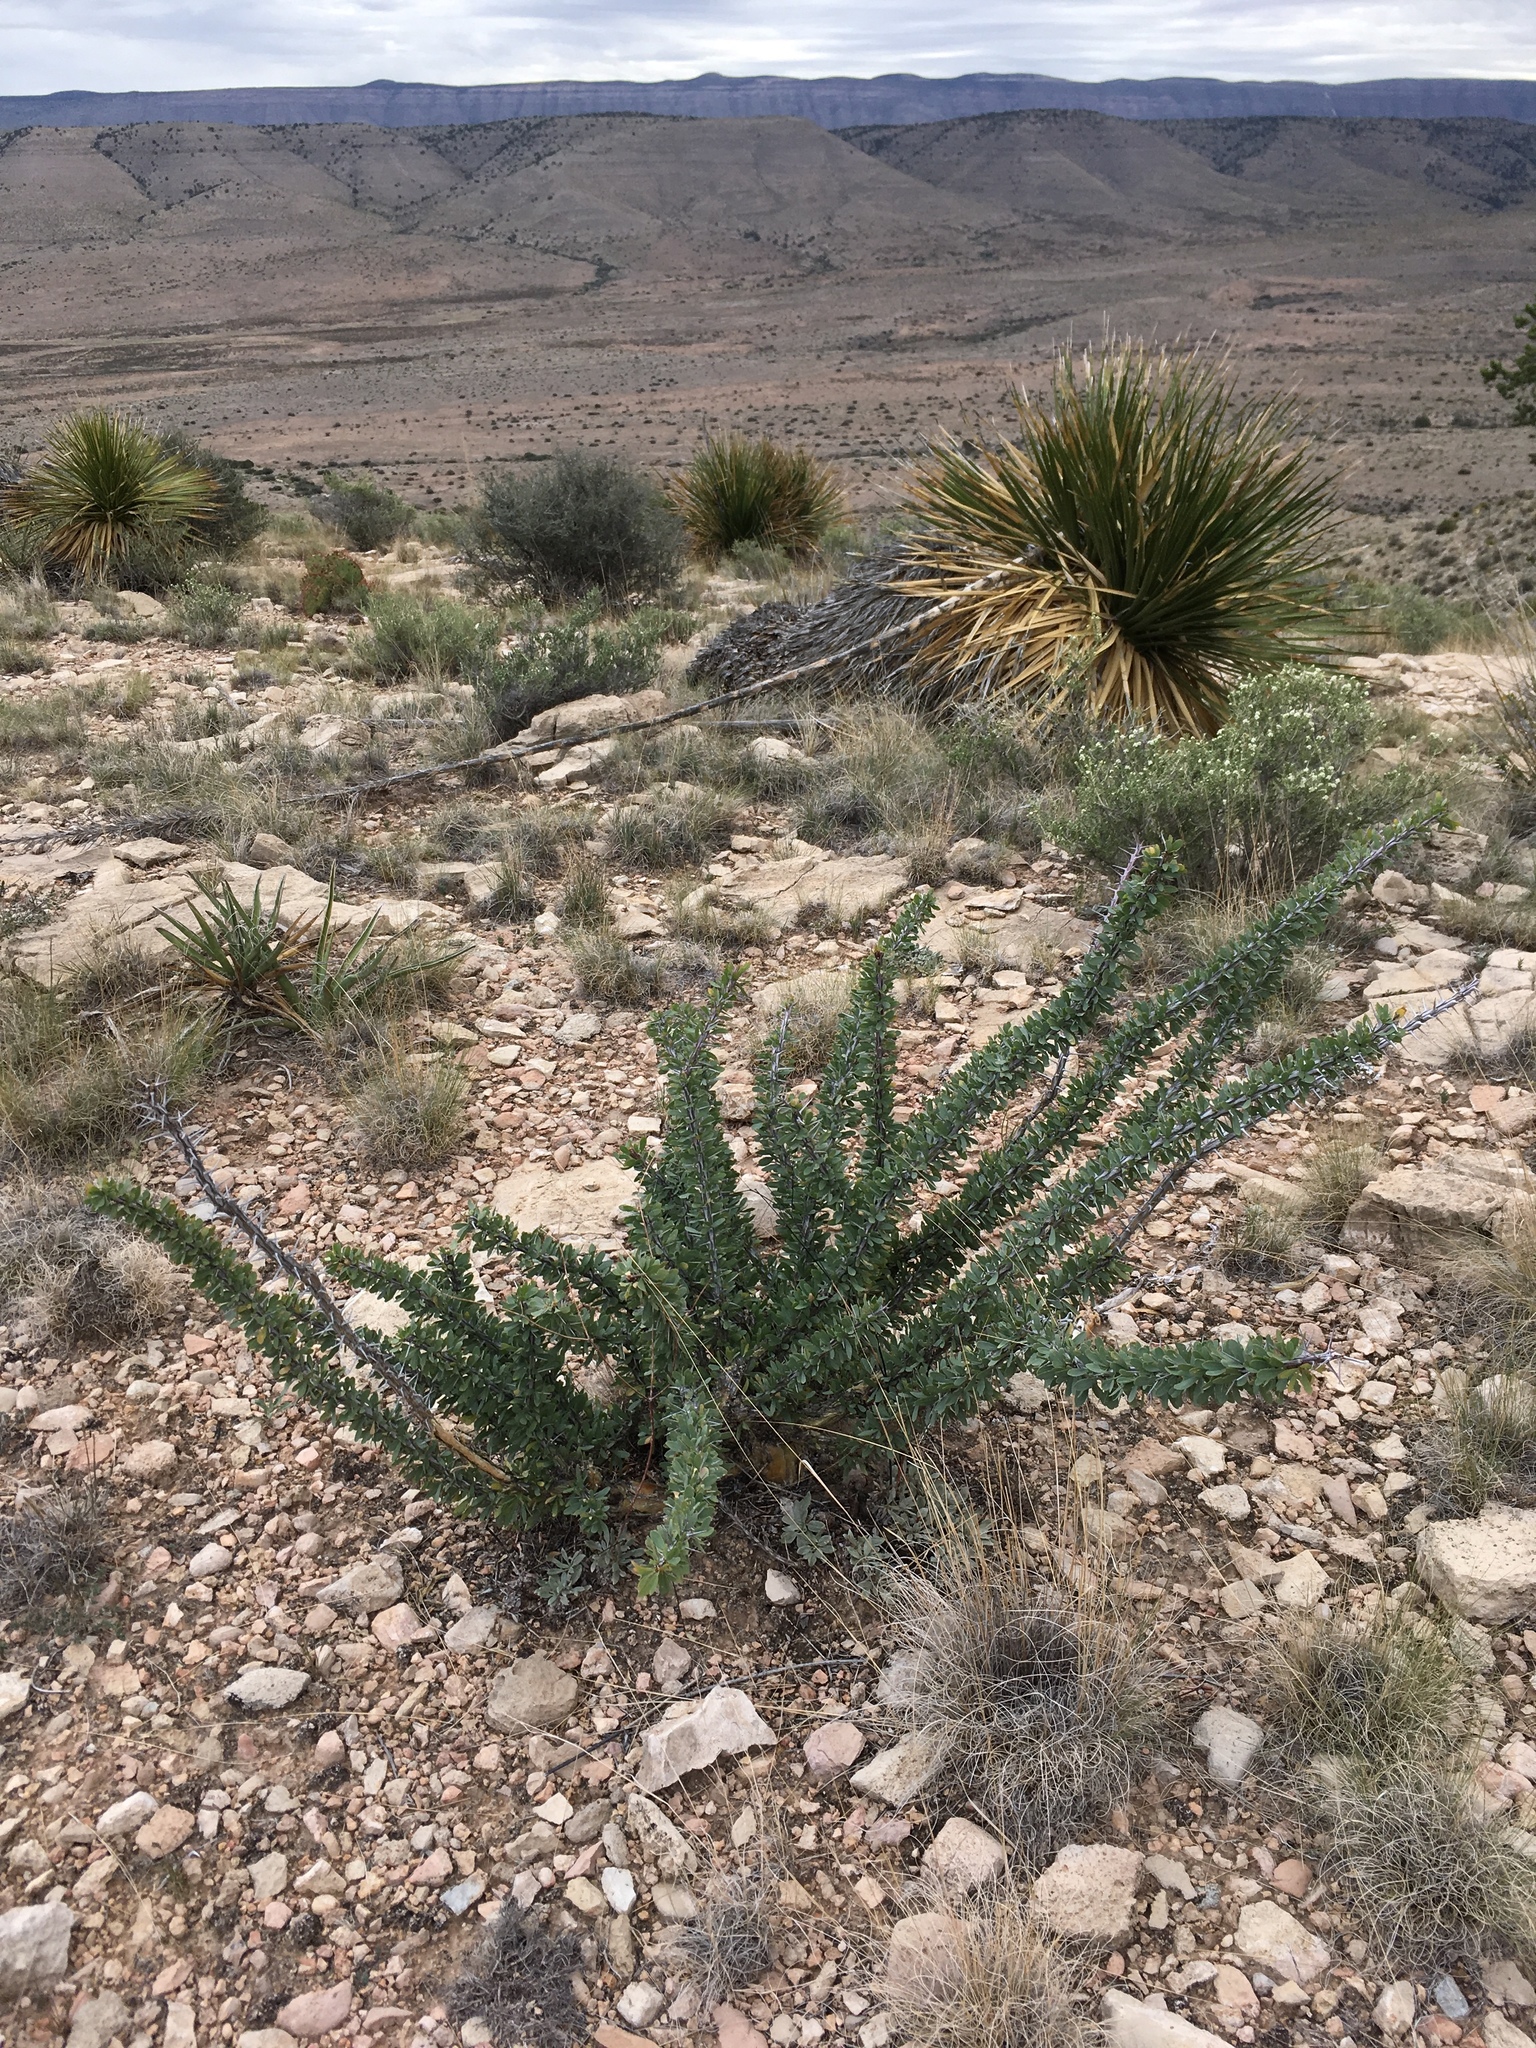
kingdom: Plantae
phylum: Tracheophyta
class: Magnoliopsida
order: Ericales
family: Fouquieriaceae
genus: Fouquieria
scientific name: Fouquieria splendens
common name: Vine-cactus
